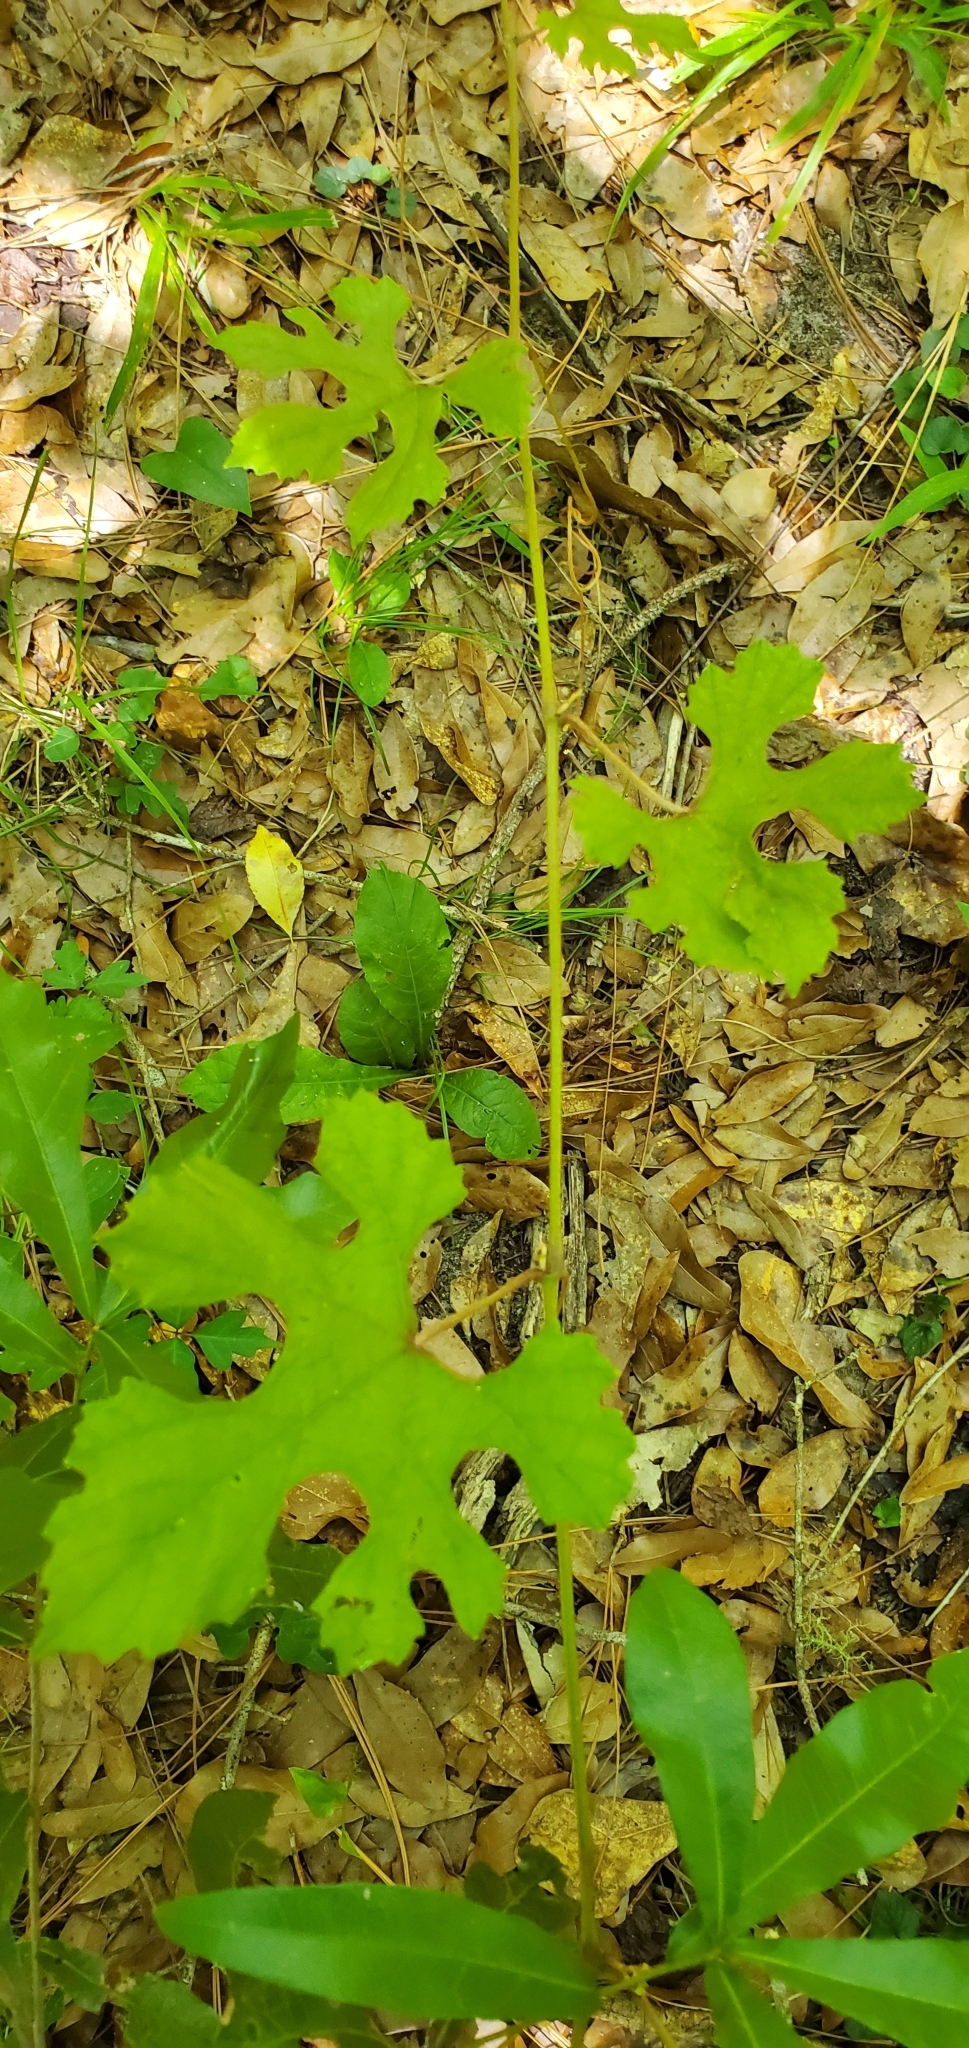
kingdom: Plantae
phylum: Tracheophyta
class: Magnoliopsida
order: Vitales
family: Vitaceae
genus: Vitis
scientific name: Vitis aestivalis
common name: Pigeon grape
